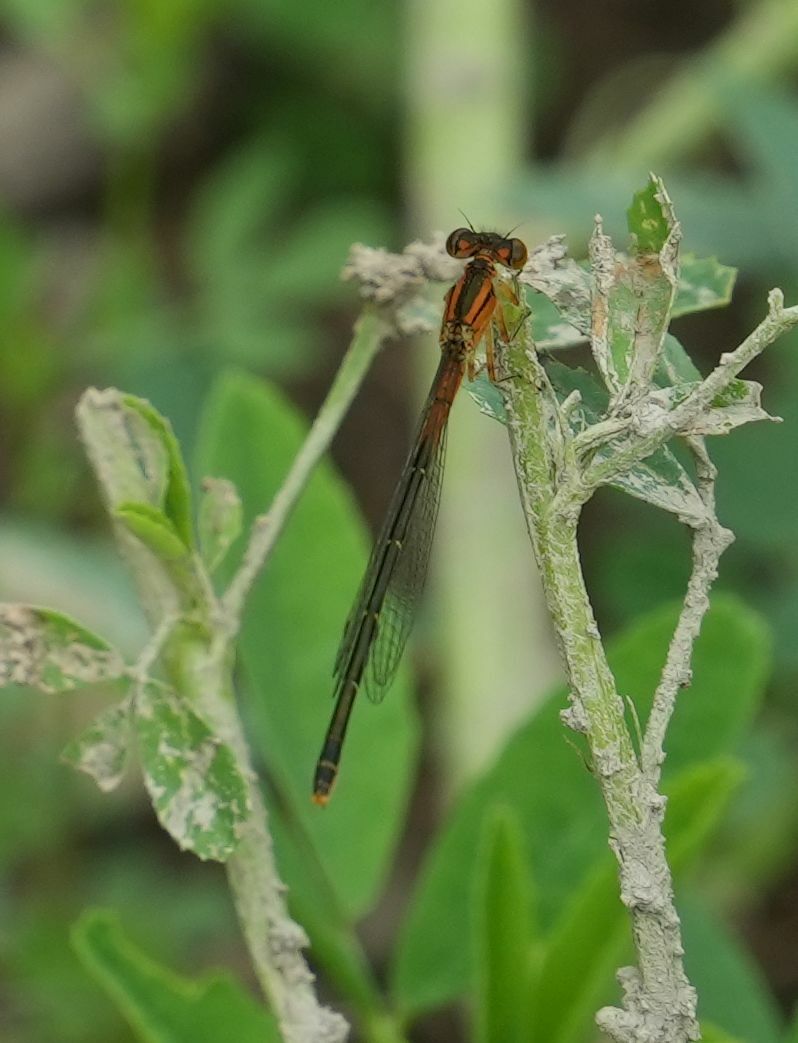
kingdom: Animalia
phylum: Arthropoda
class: Insecta
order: Odonata
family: Coenagrionidae
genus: Ischnura
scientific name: Ischnura verticalis
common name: Eastern forktail
